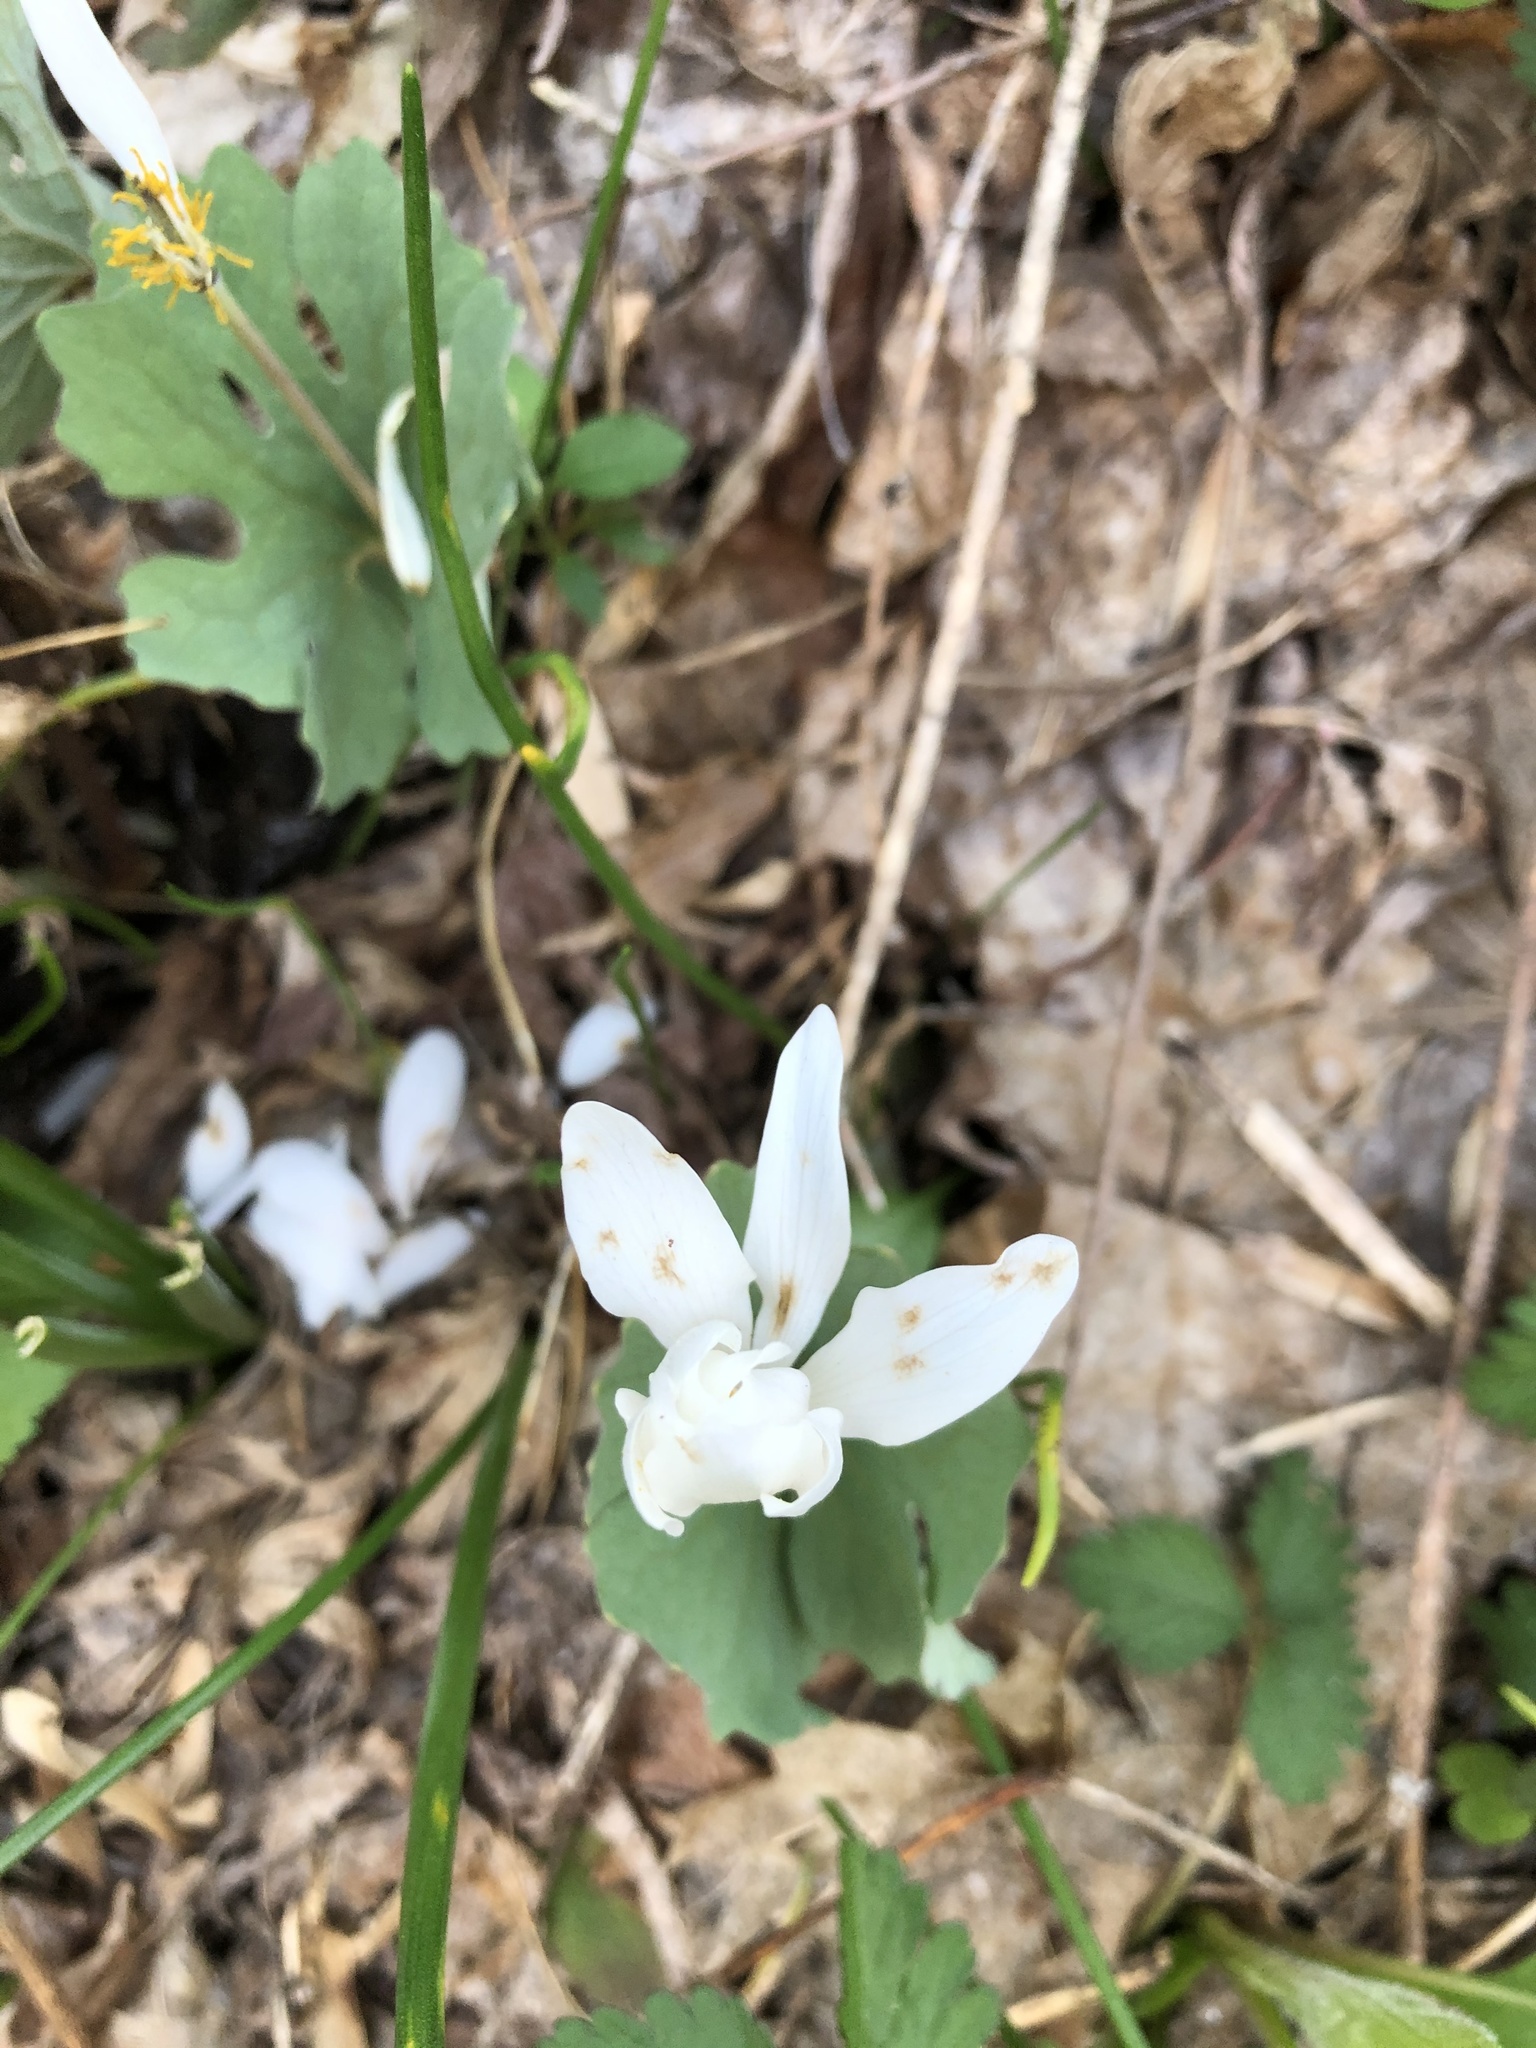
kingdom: Plantae
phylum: Tracheophyta
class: Magnoliopsida
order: Ranunculales
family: Papaveraceae
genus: Sanguinaria
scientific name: Sanguinaria canadensis
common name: Bloodroot
